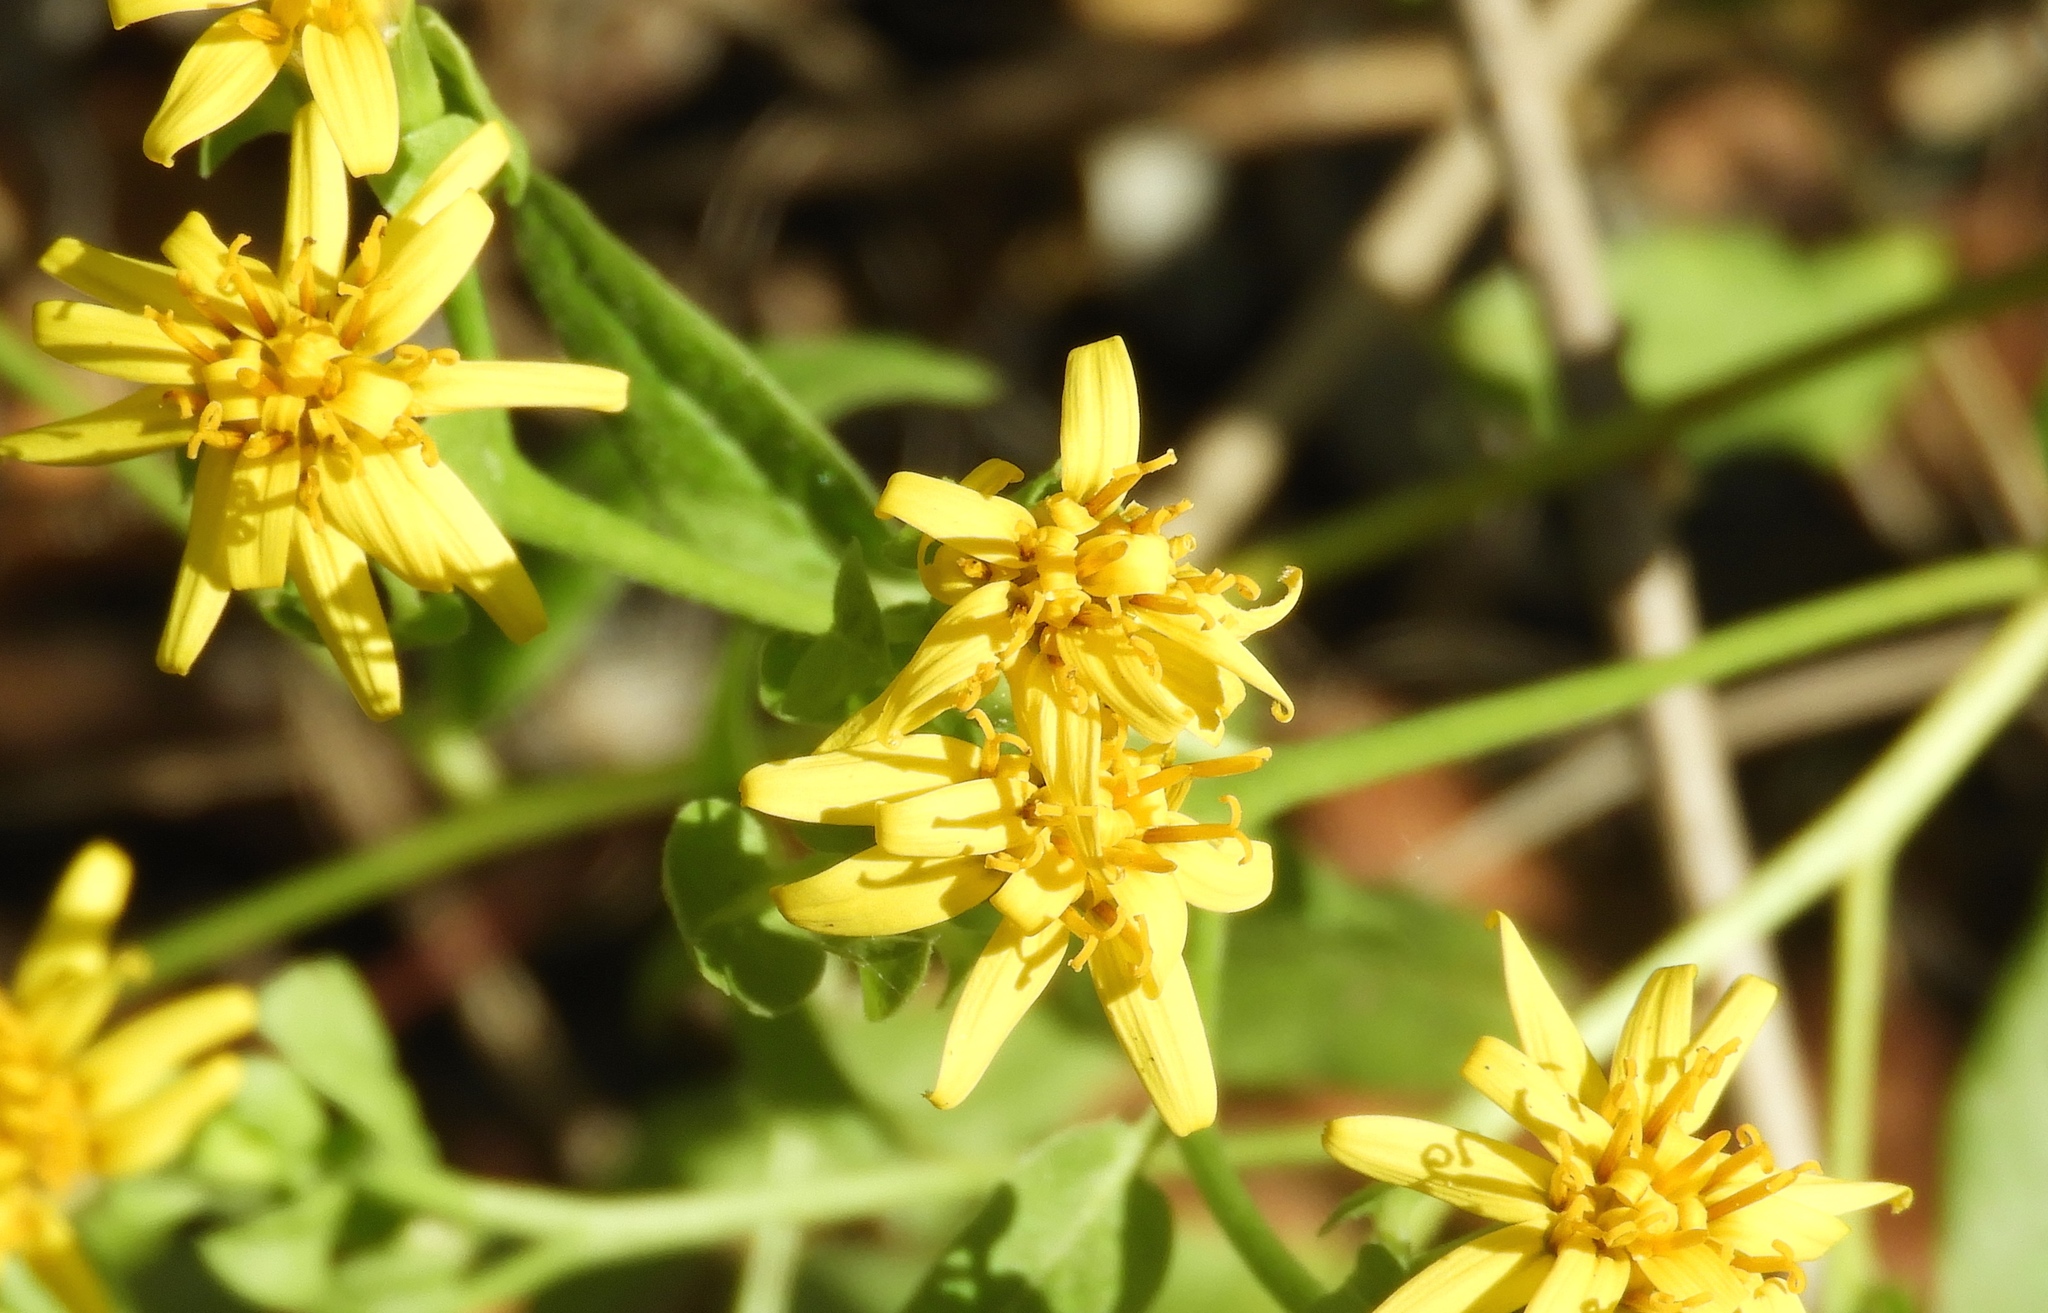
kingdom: Plantae
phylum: Tracheophyta
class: Magnoliopsida
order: Asterales
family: Asteraceae
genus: Trixis
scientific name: Trixis pterocaulis
